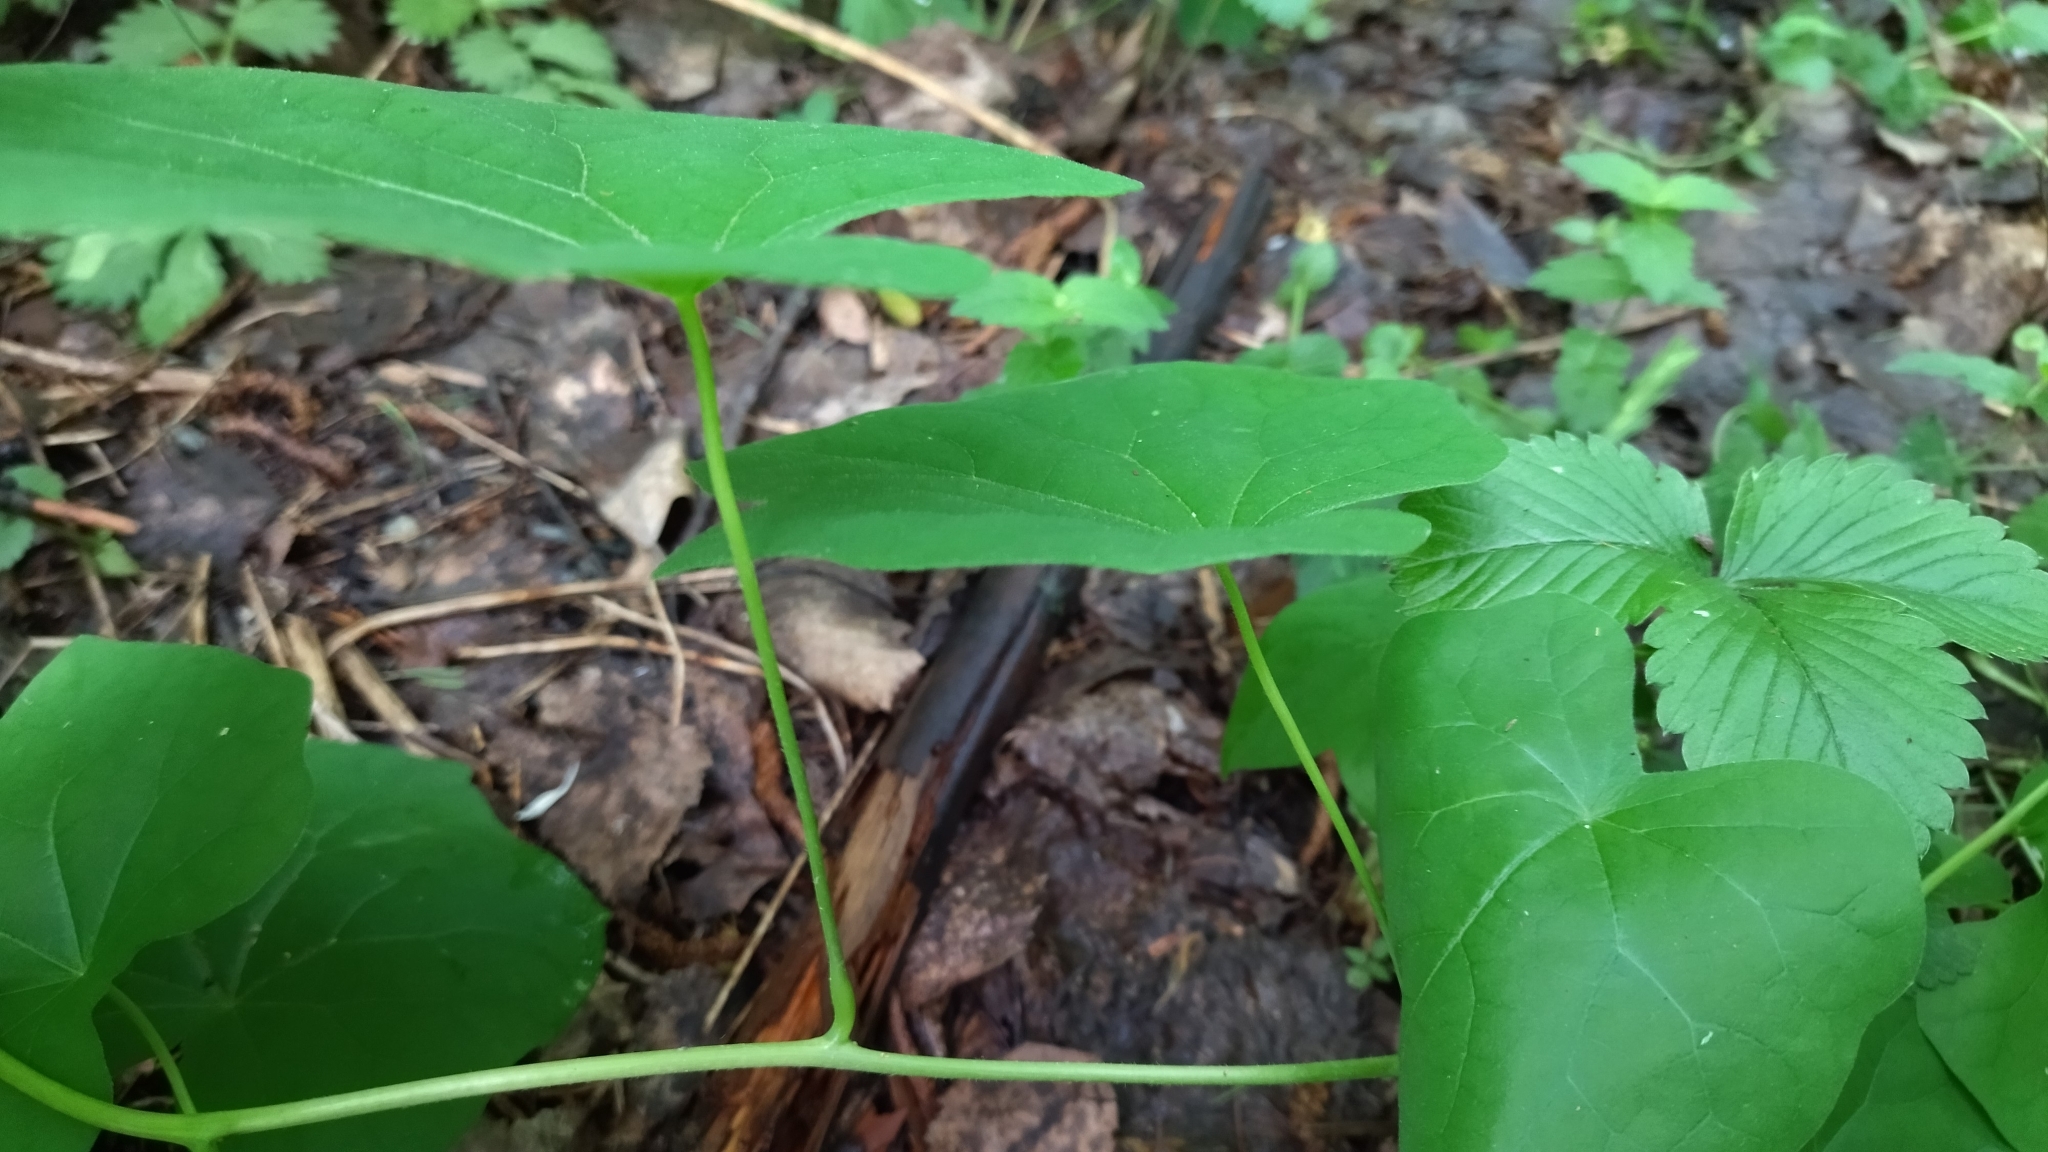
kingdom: Plantae
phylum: Tracheophyta
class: Magnoliopsida
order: Ranunculales
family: Menispermaceae
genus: Menispermum
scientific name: Menispermum dauricum
